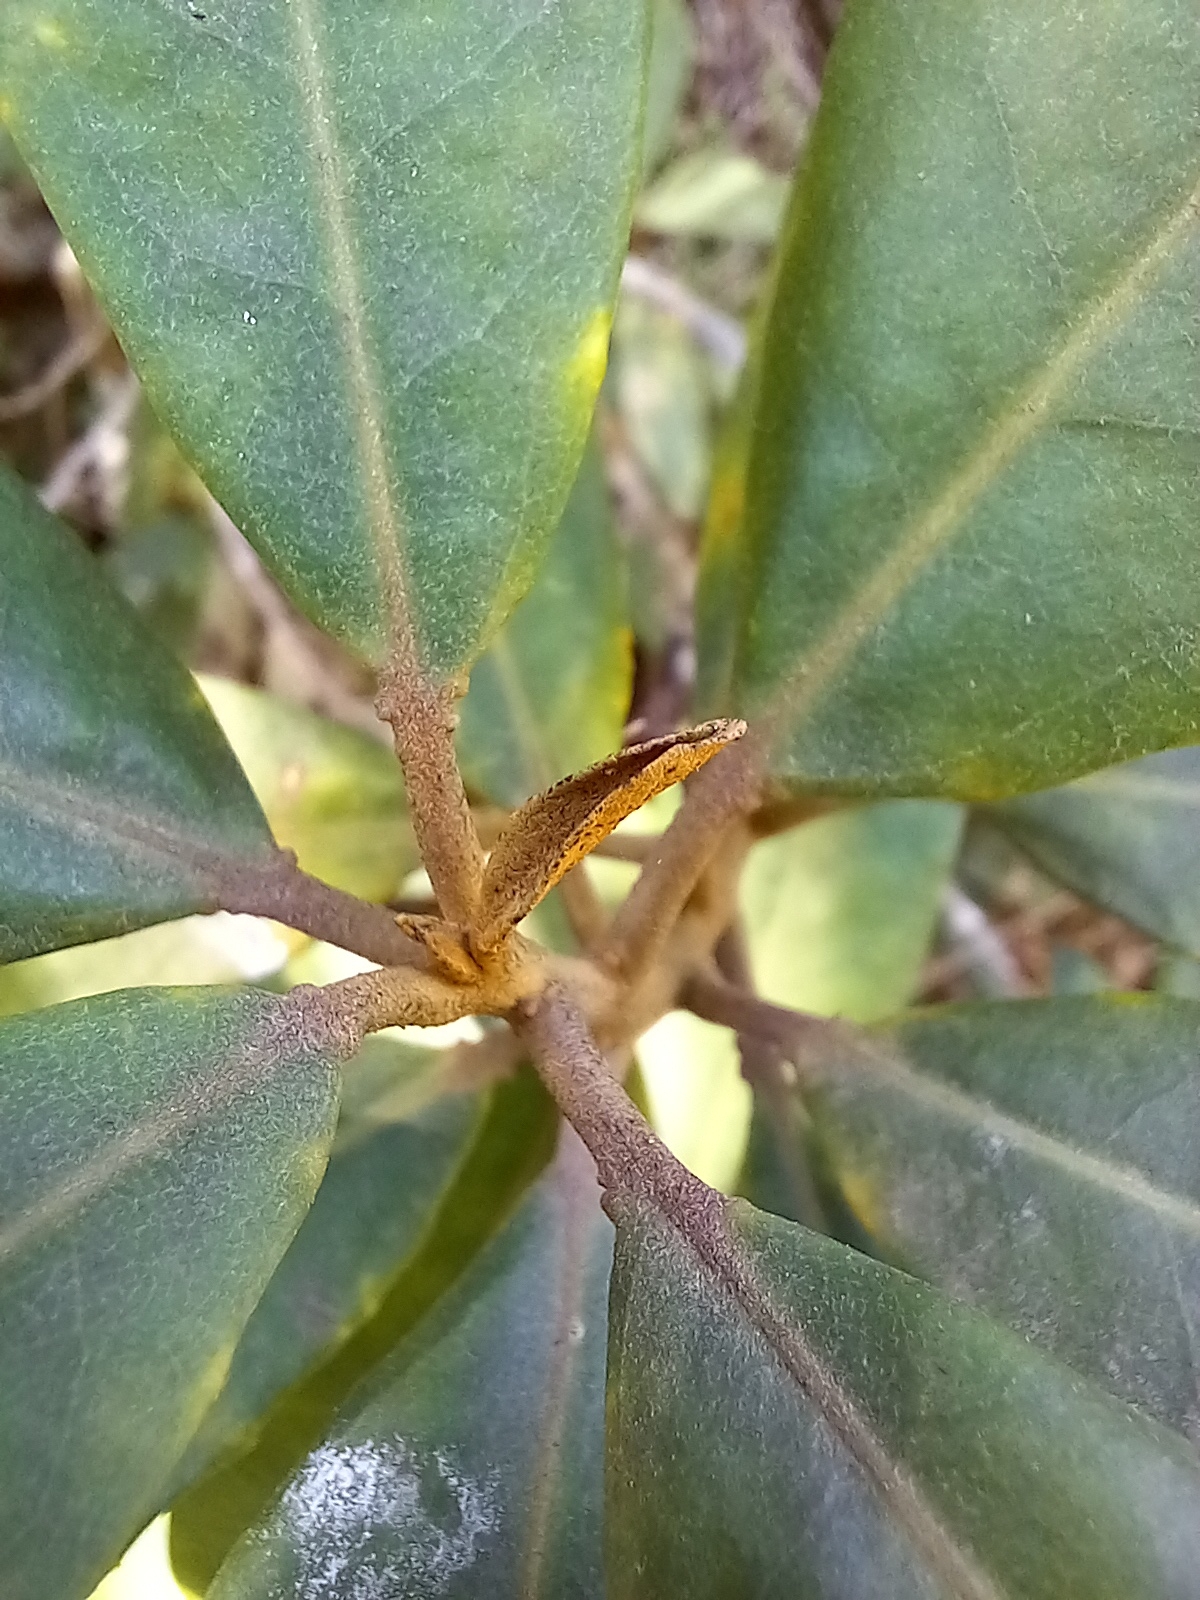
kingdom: Plantae
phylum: Tracheophyta
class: Magnoliopsida
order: Asterales
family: Asteraceae
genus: Brachylaena
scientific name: Brachylaena glabra
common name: Malabar silver-oak
